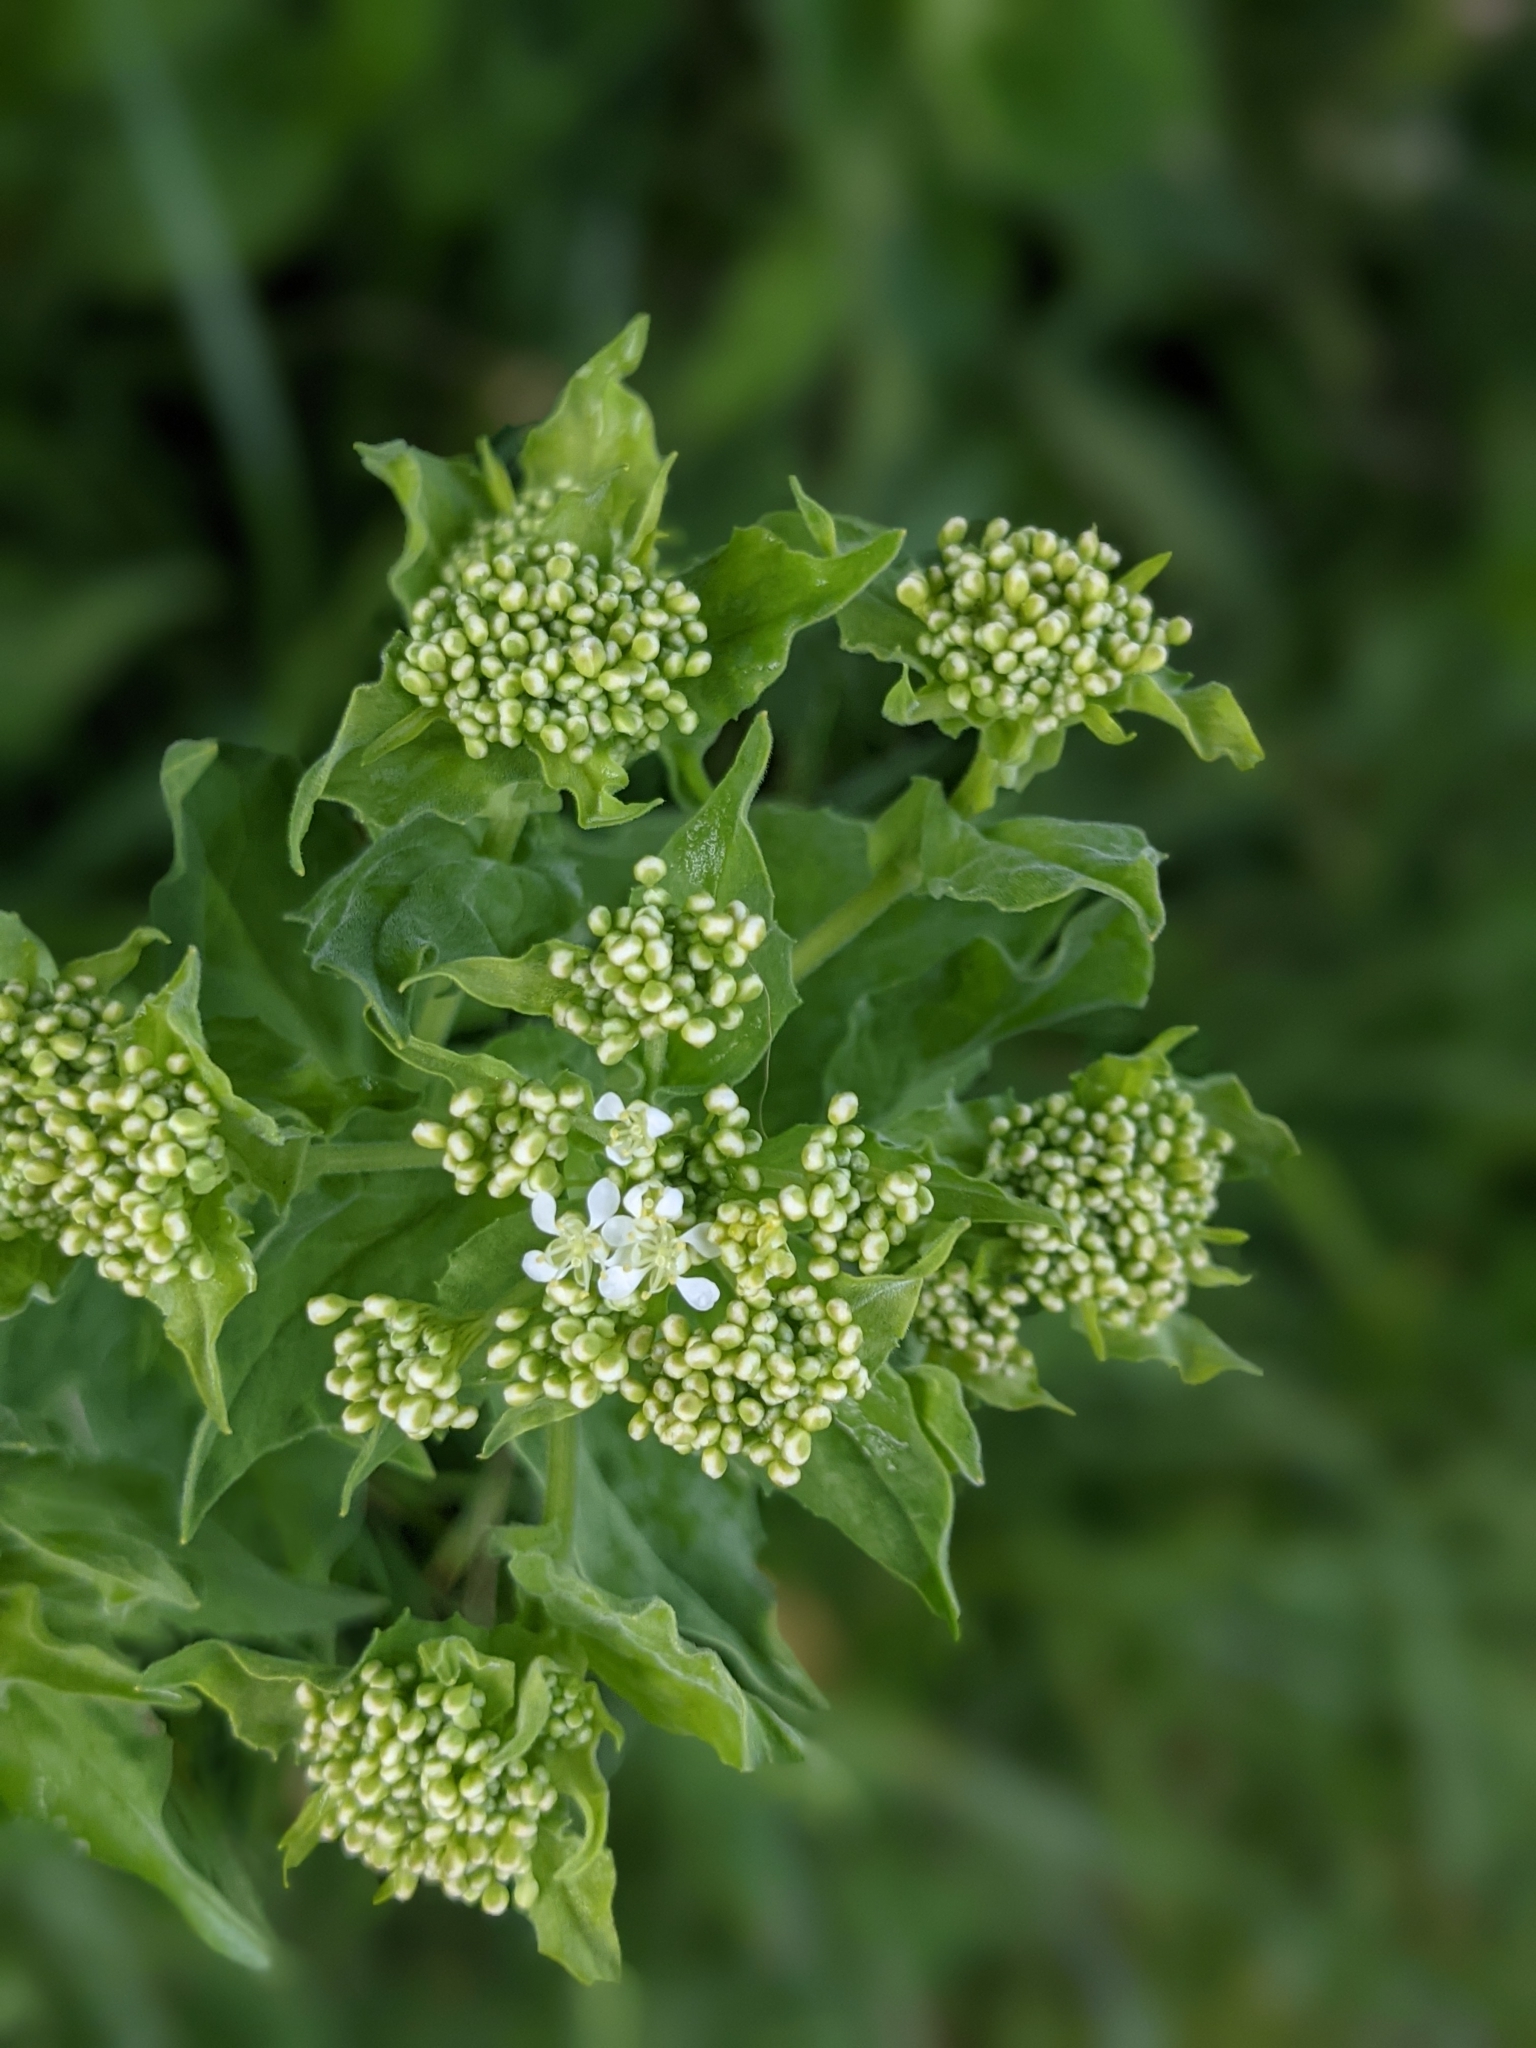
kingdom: Plantae
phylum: Tracheophyta
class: Magnoliopsida
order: Brassicales
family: Brassicaceae
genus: Lepidium
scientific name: Lepidium draba
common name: Hoary cress
